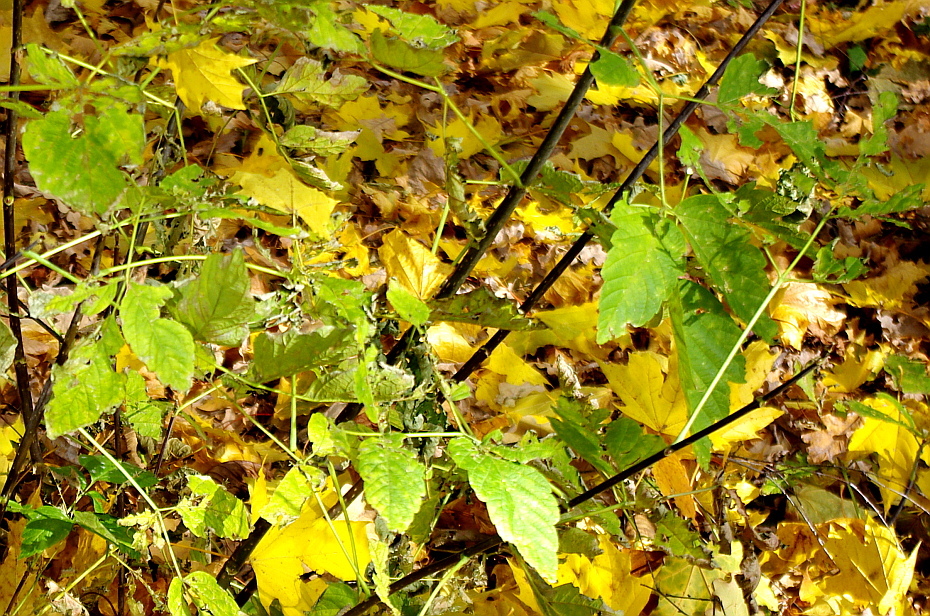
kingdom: Plantae
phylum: Tracheophyta
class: Magnoliopsida
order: Sapindales
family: Sapindaceae
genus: Acer
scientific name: Acer negundo
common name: Ashleaf maple
